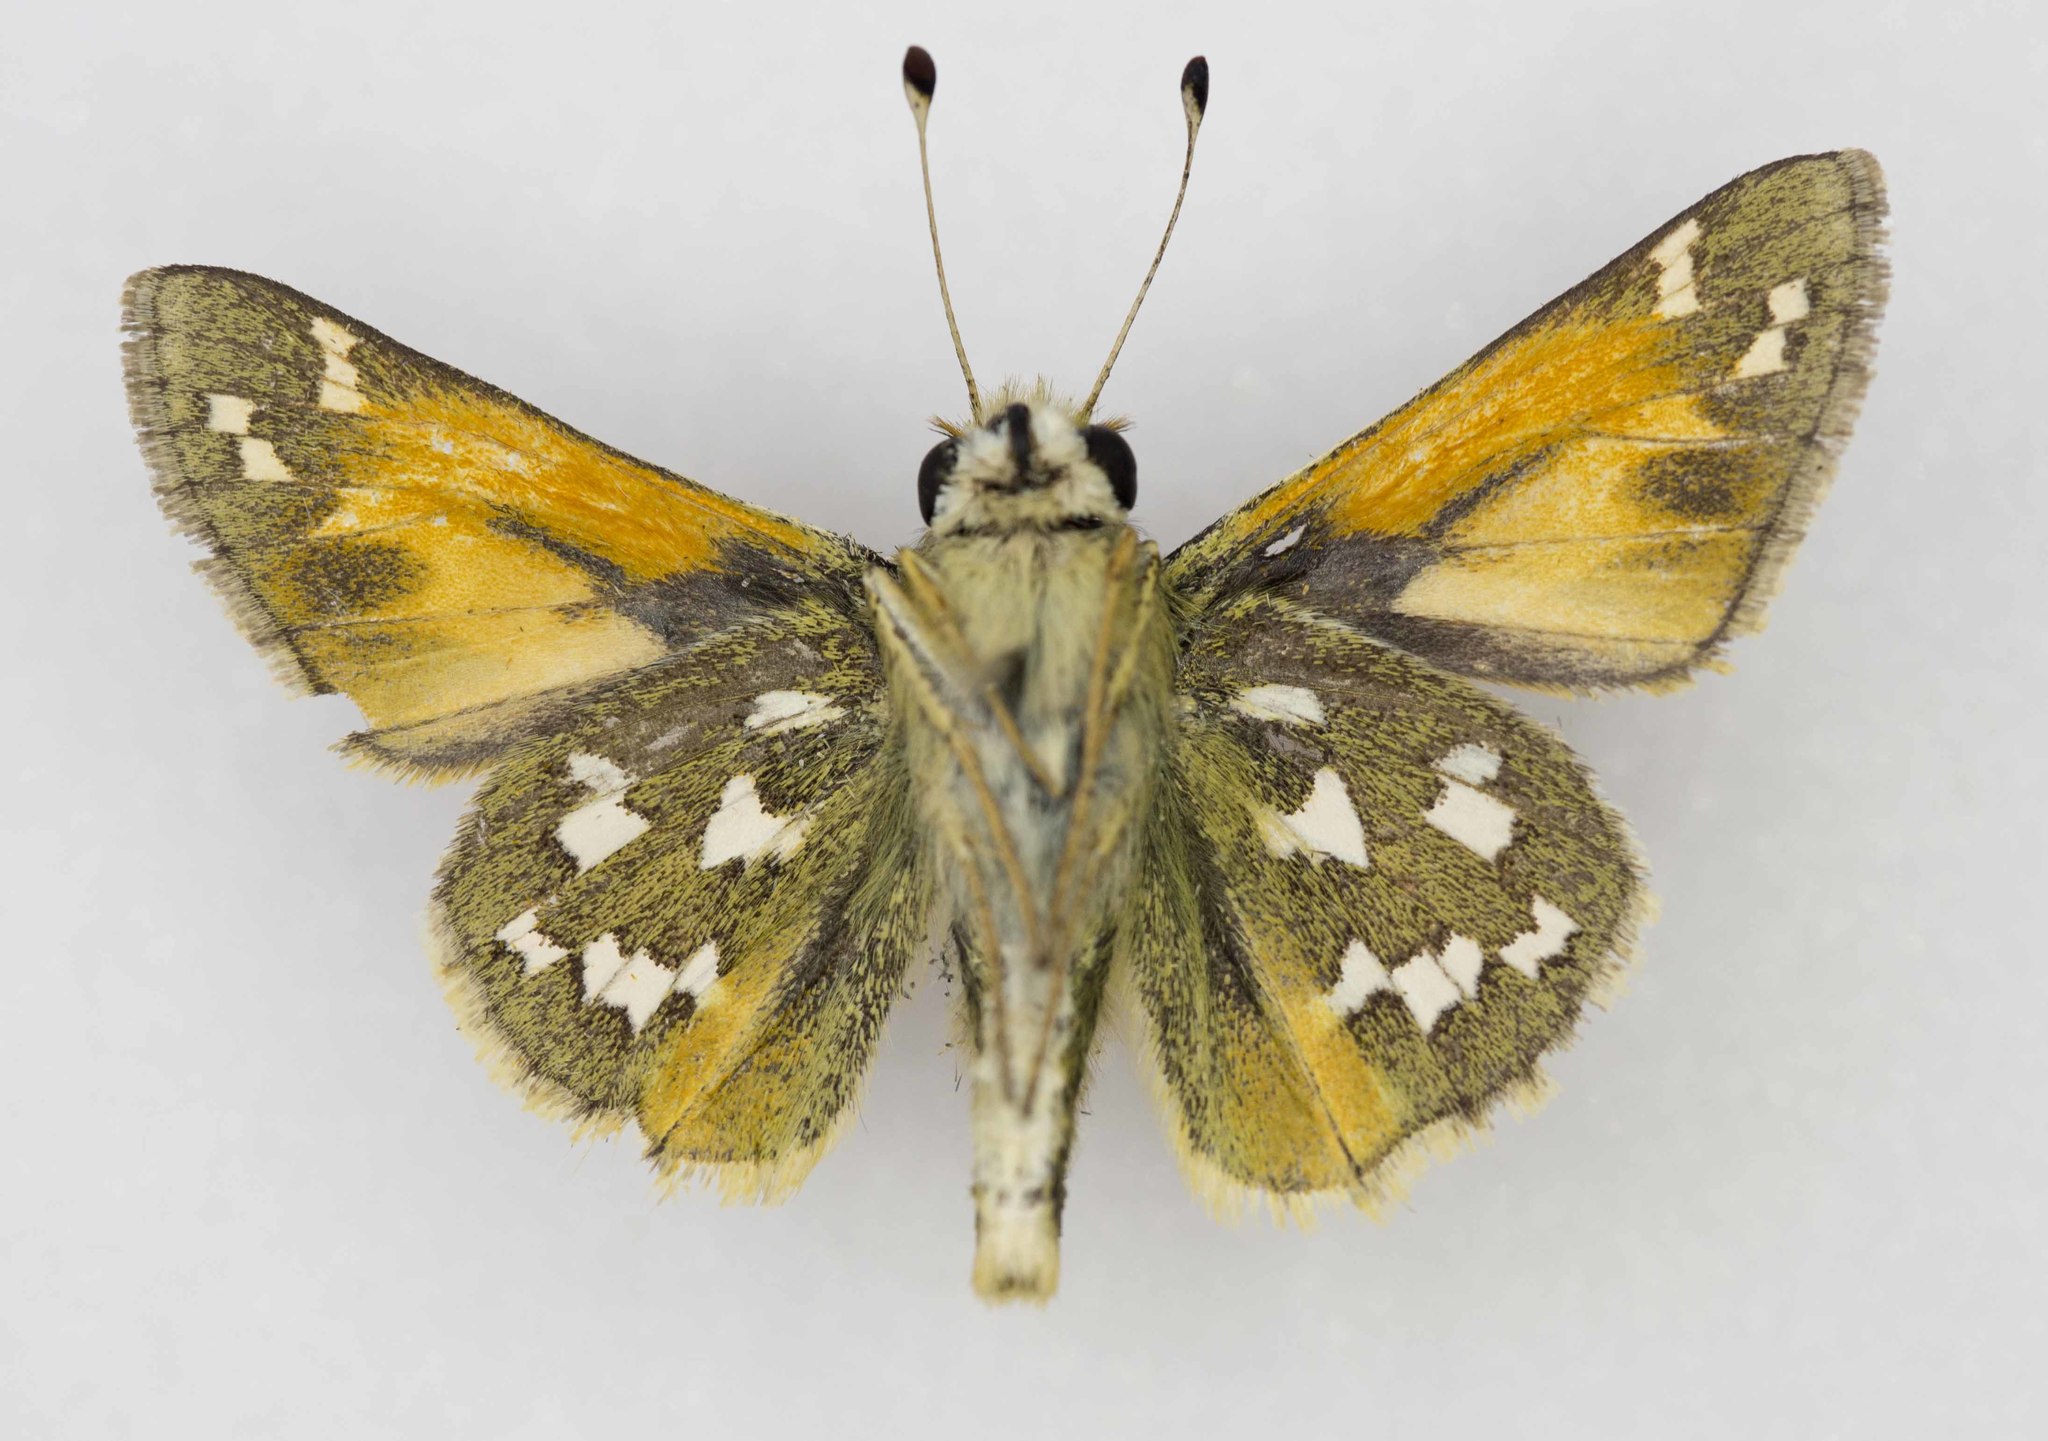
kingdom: Animalia
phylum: Arthropoda
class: Insecta
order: Lepidoptera
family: Hesperiidae
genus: Hesperia
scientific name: Hesperia juba
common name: Juba skipper
